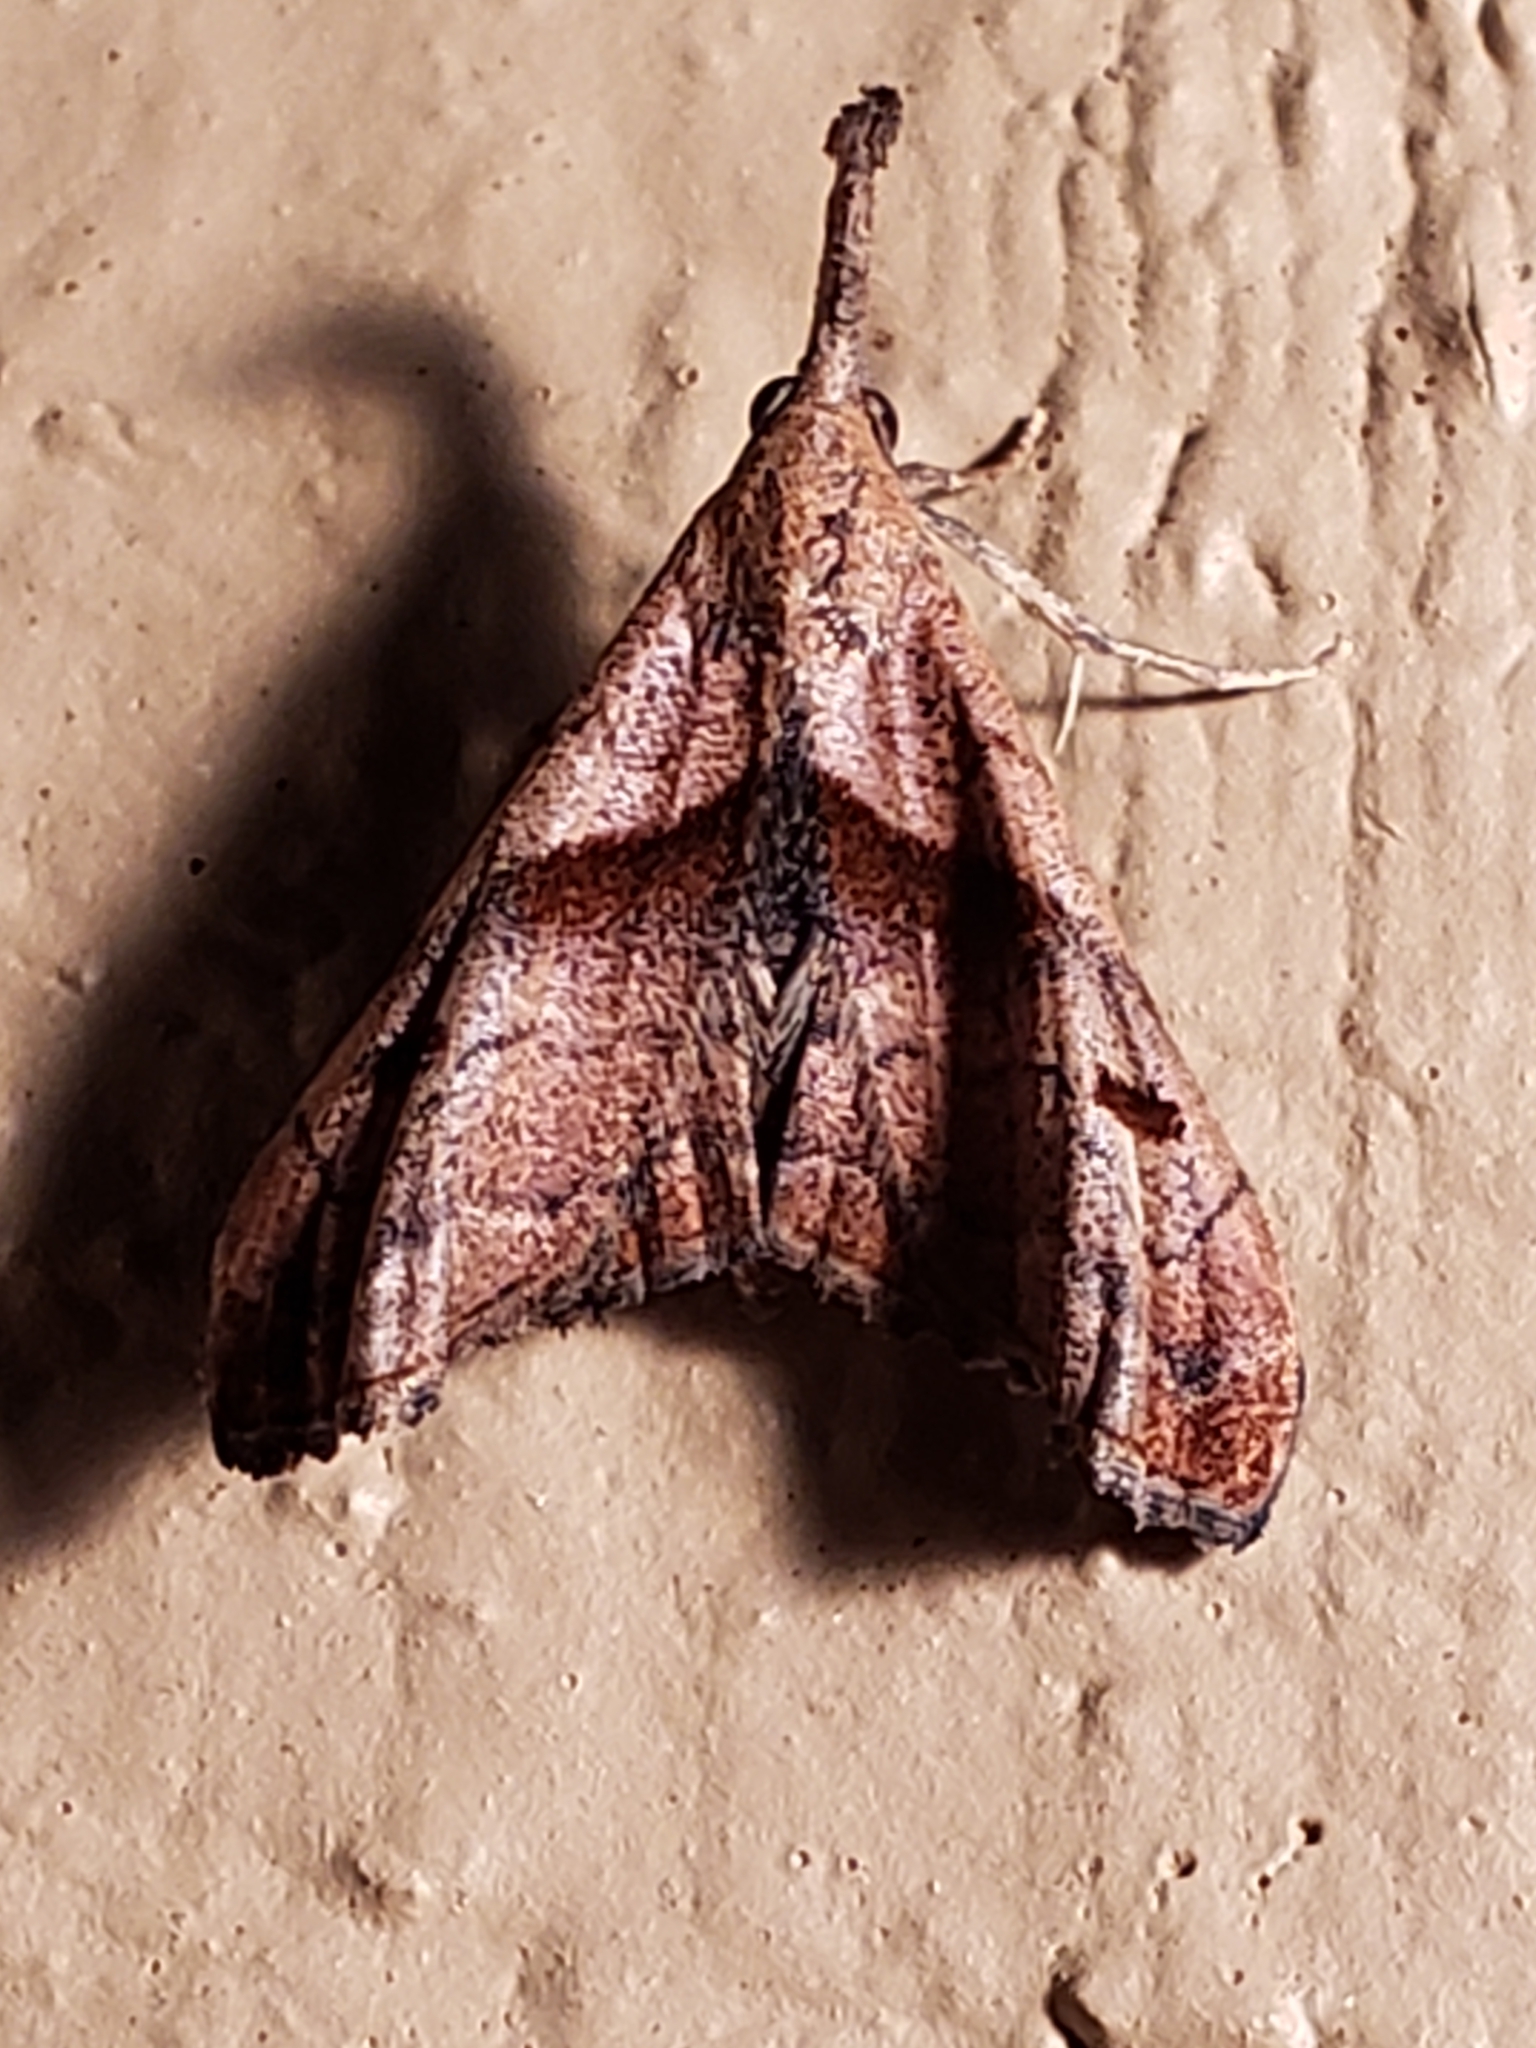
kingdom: Animalia
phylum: Arthropoda
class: Insecta
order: Lepidoptera
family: Erebidae
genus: Palthis
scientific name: Palthis angulalis
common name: Dark-spotted palthis moth
